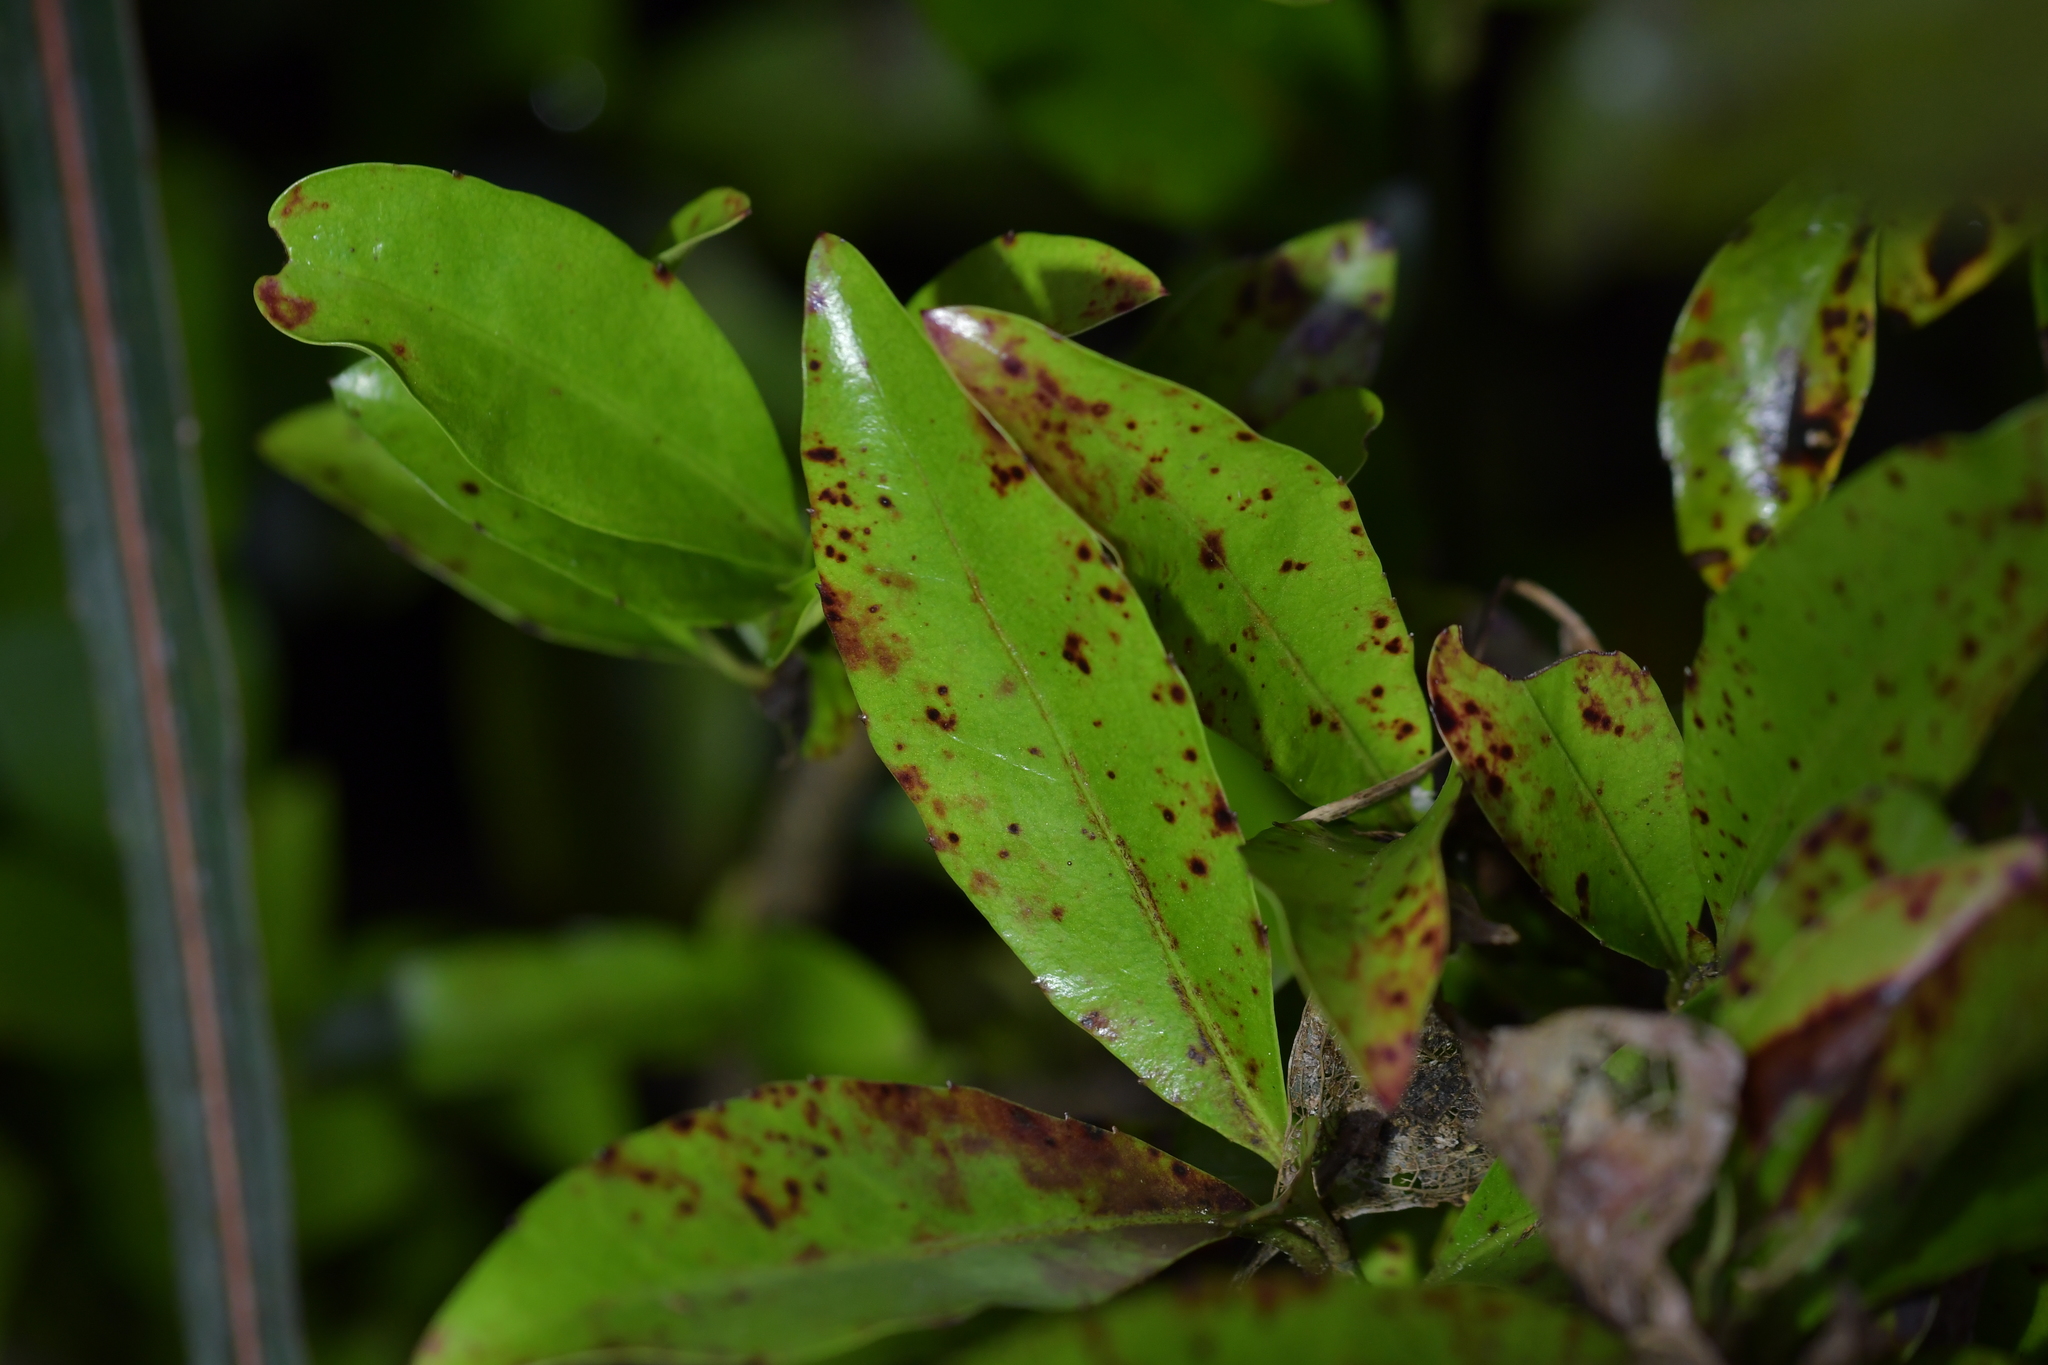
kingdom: Plantae
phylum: Tracheophyta
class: Magnoliopsida
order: Canellales
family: Winteraceae
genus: Pseudowintera
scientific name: Pseudowintera colorata
